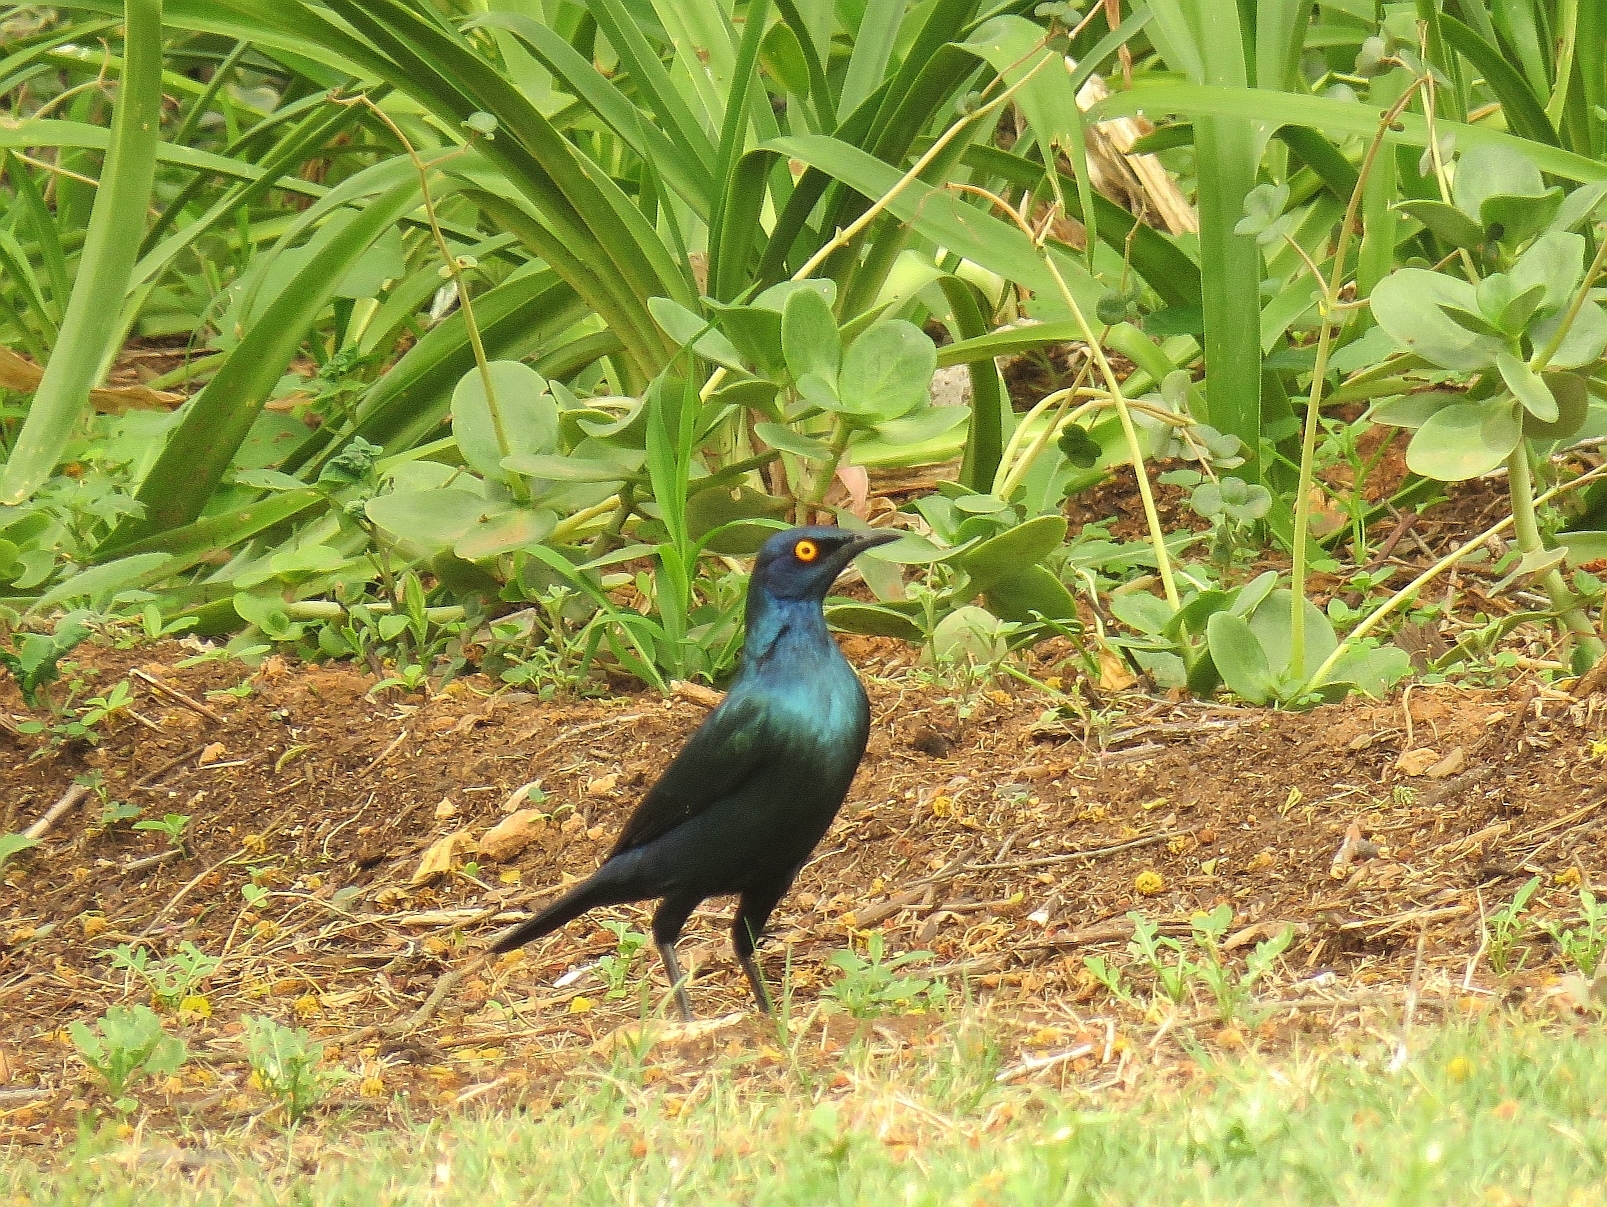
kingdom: Animalia
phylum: Chordata
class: Aves
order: Passeriformes
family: Sturnidae
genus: Lamprotornis
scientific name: Lamprotornis nitens
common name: Cape starling
